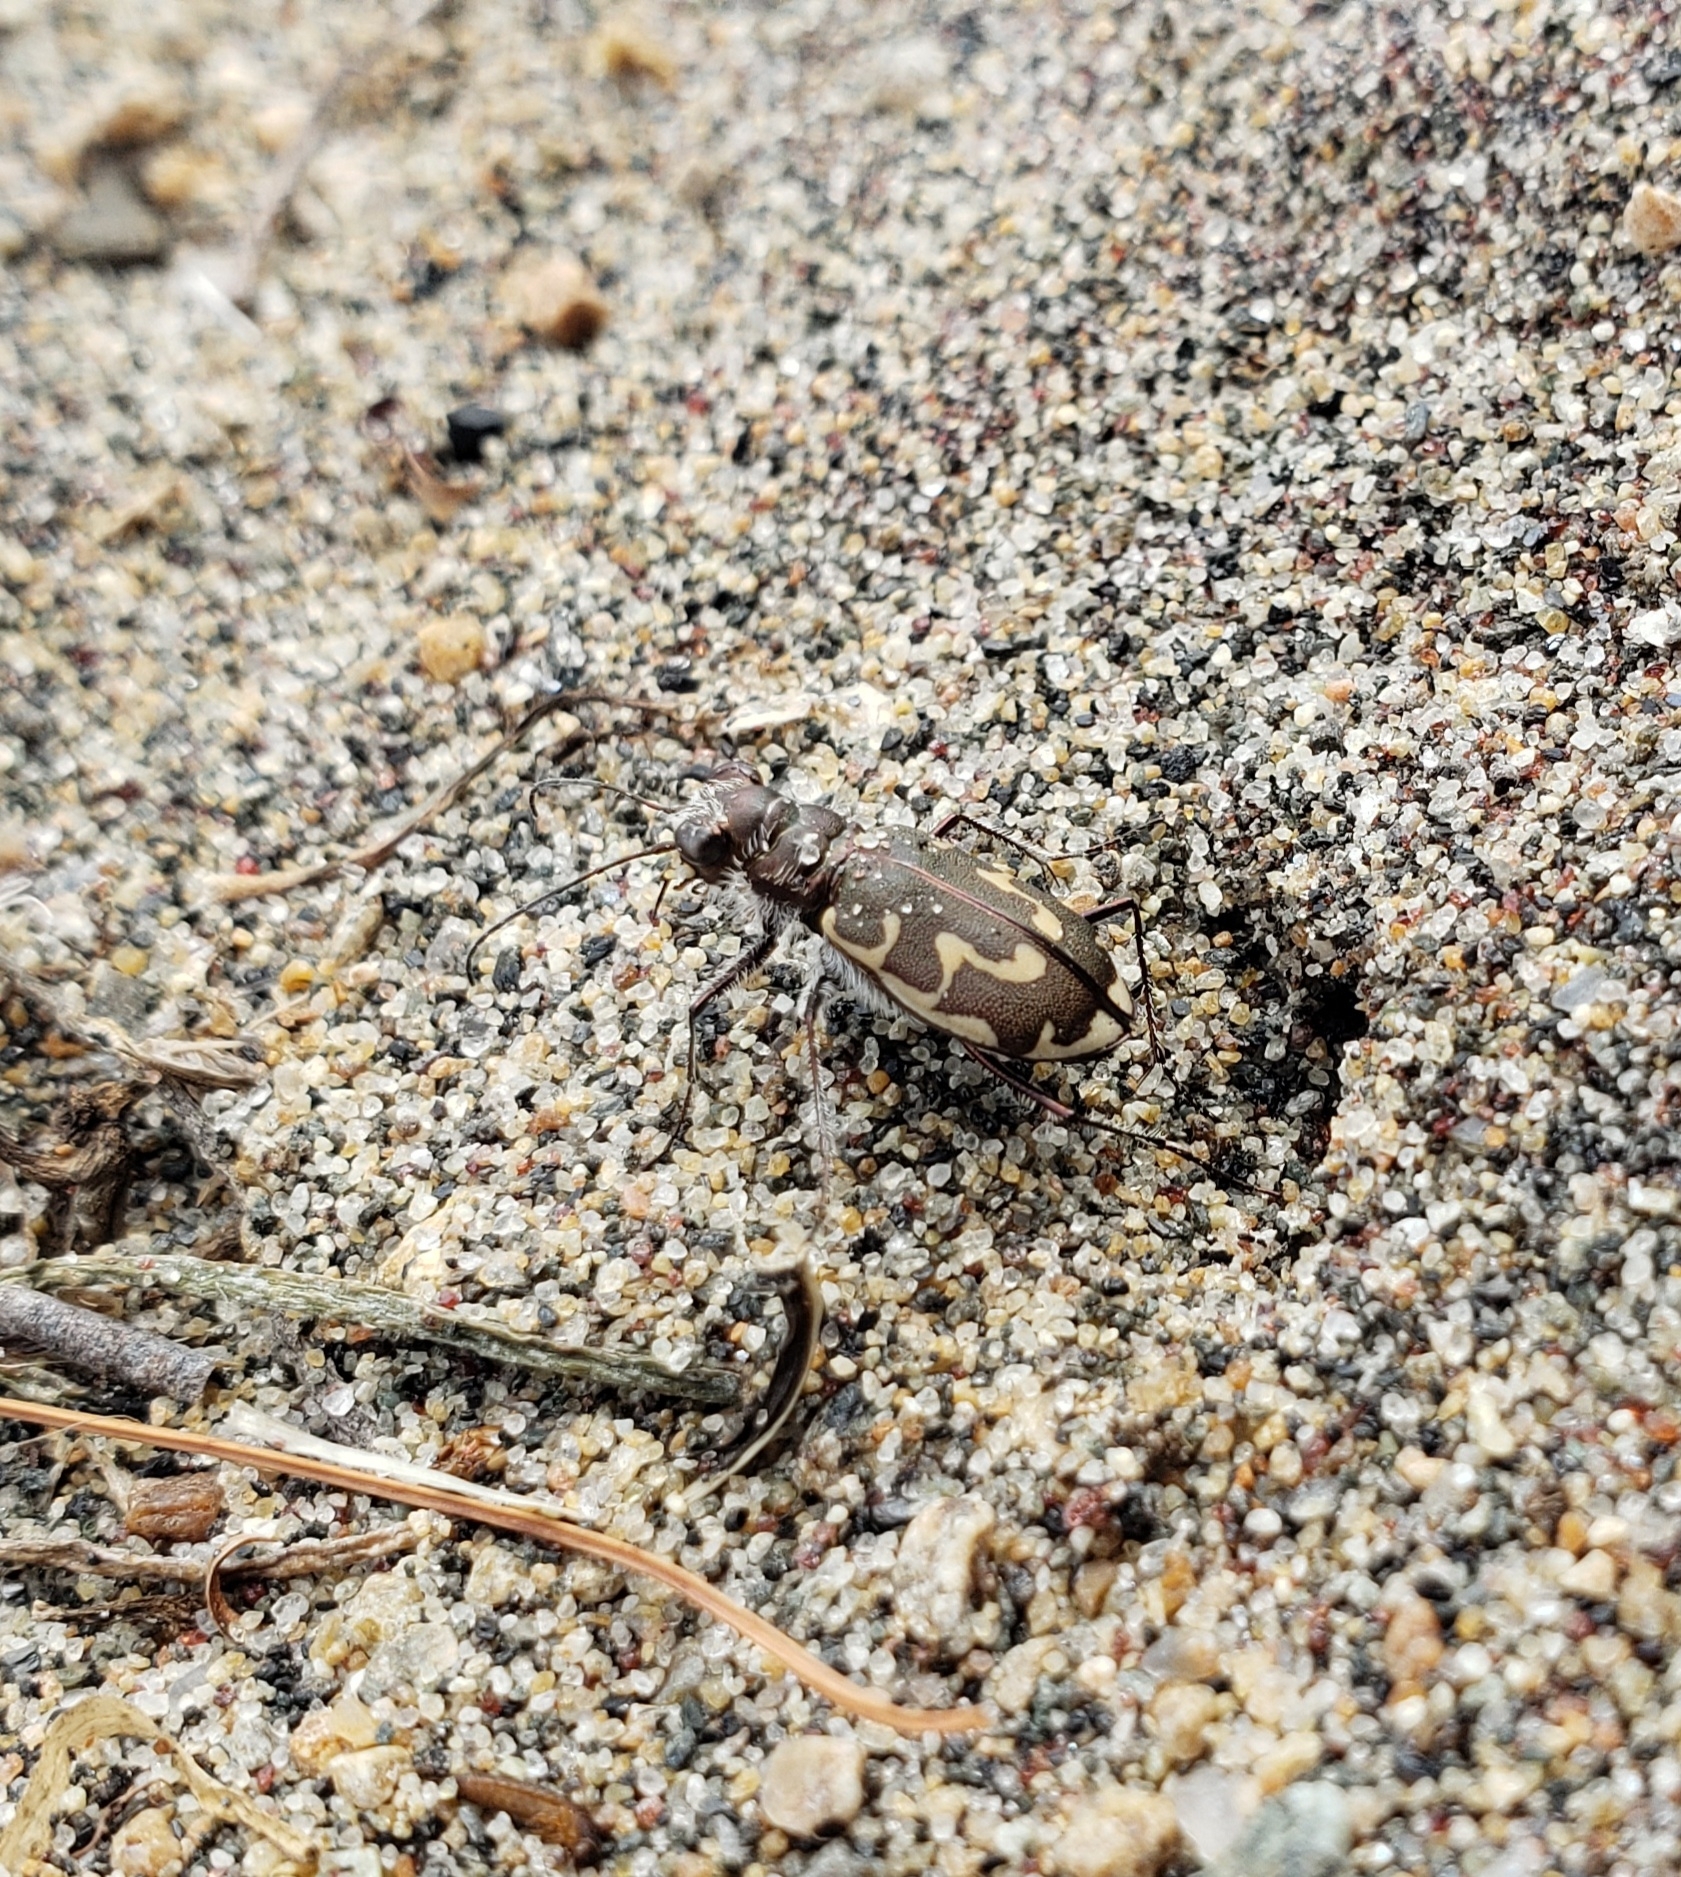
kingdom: Animalia
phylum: Arthropoda
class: Insecta
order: Coleoptera
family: Carabidae
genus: Cicindela
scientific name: Cicindela hirticollis
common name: Hairy-necked tiger beetle
